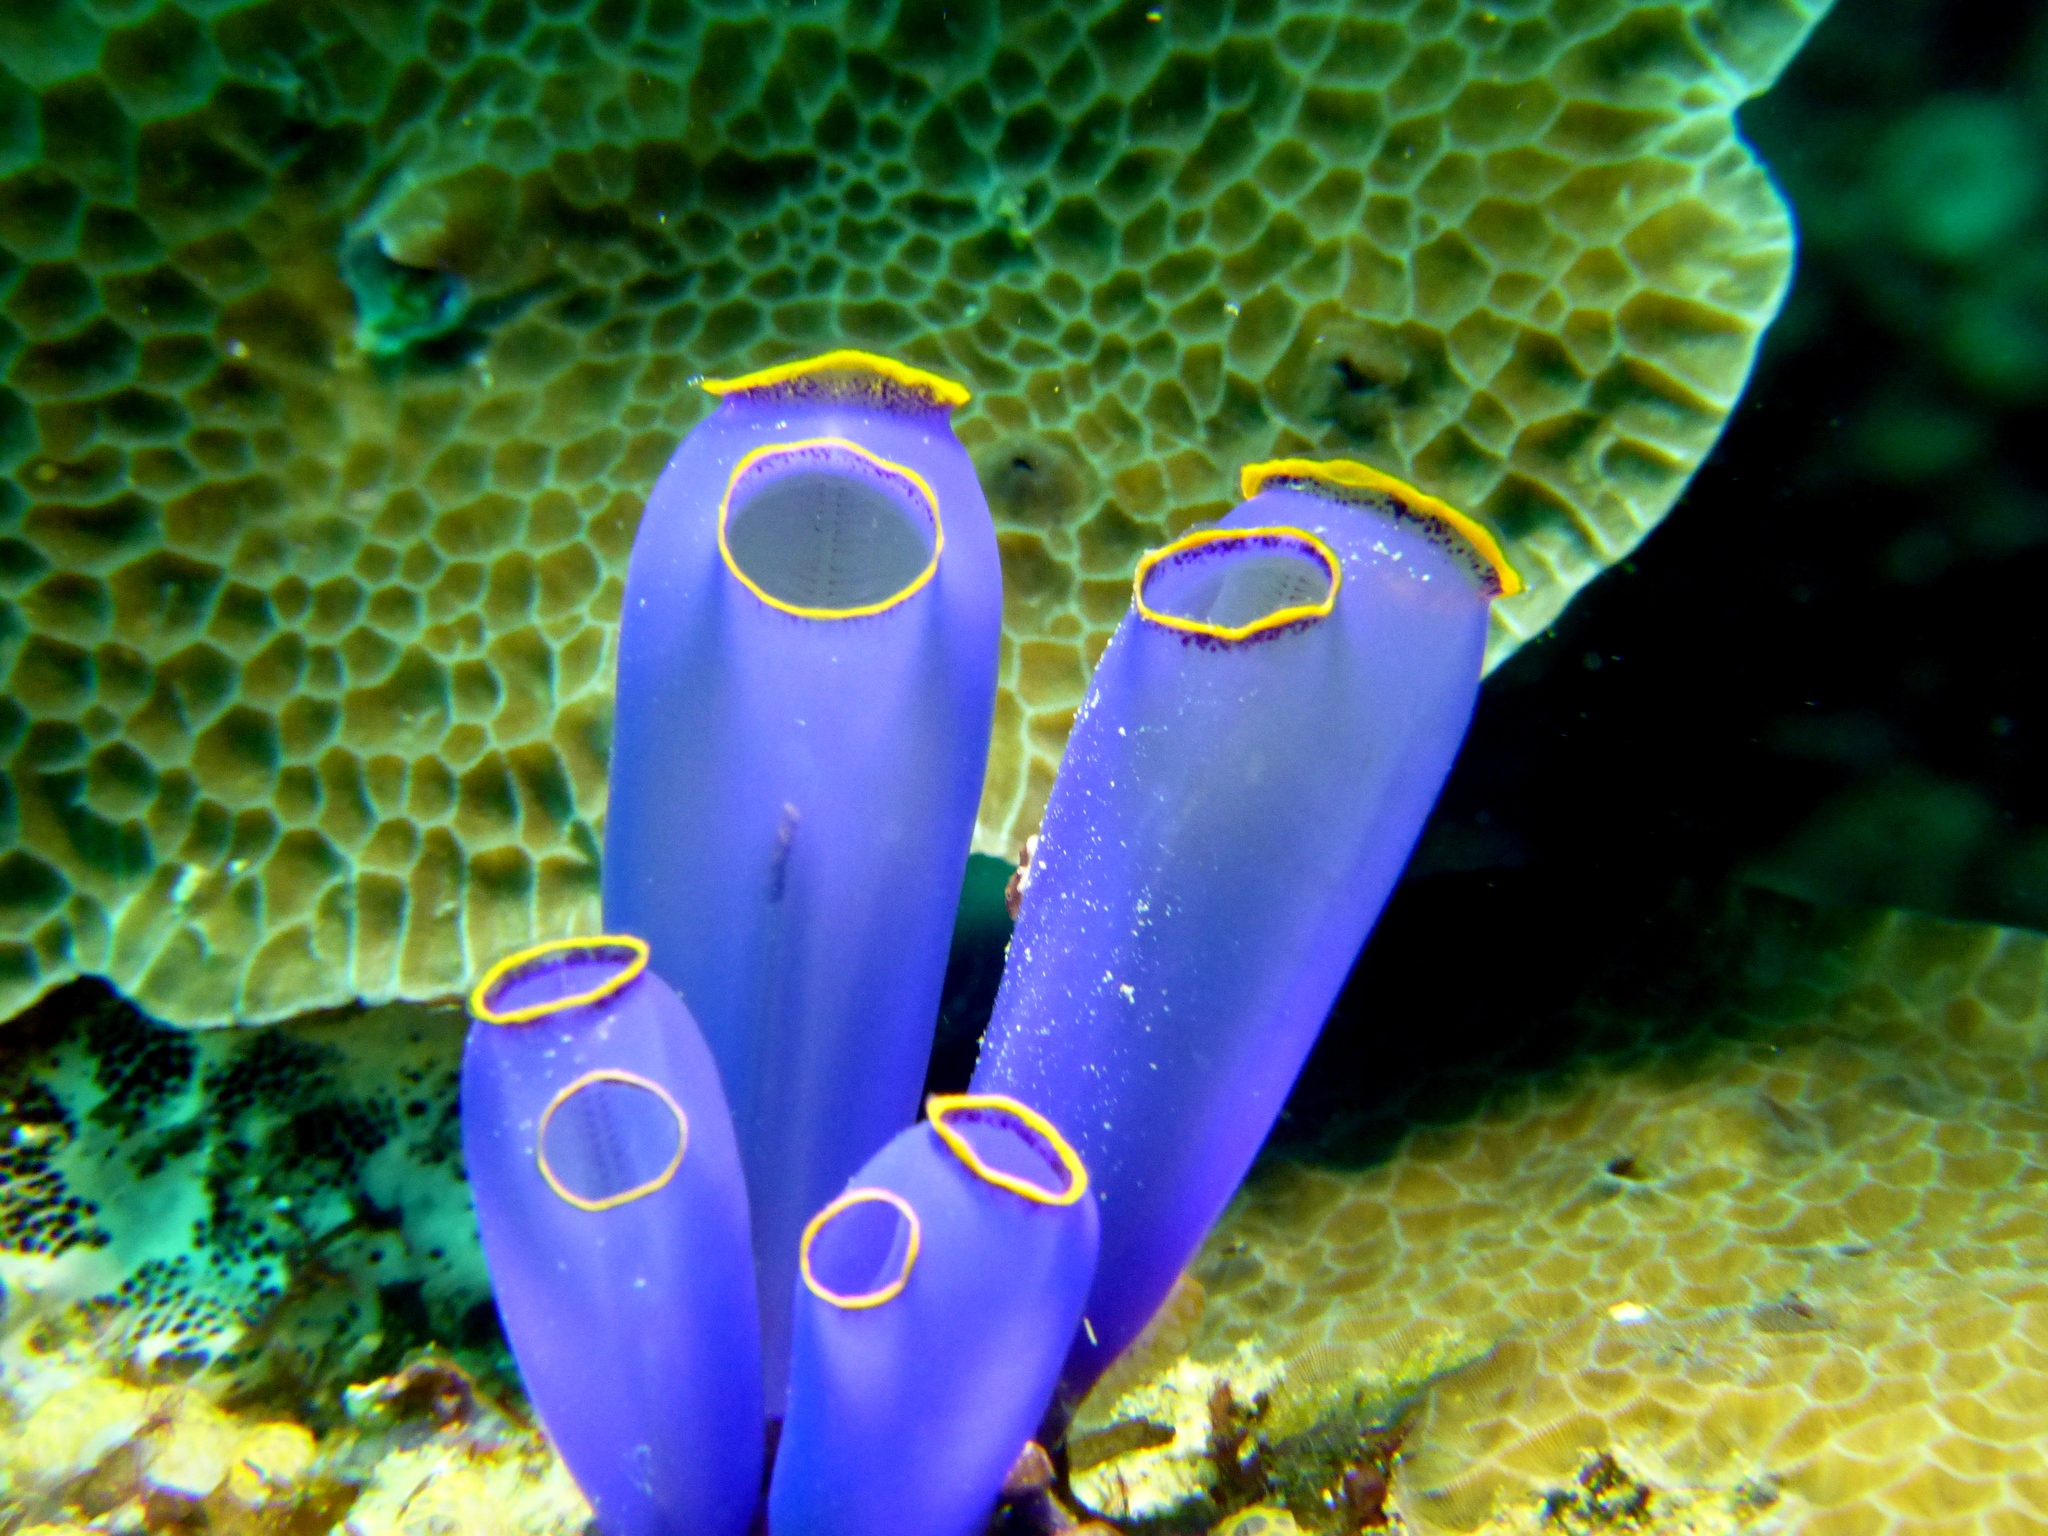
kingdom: Animalia
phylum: Chordata
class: Ascidiacea
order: Aplousobranchia
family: Diazonidae
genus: Rhopalaea
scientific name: Rhopalaea fusca
